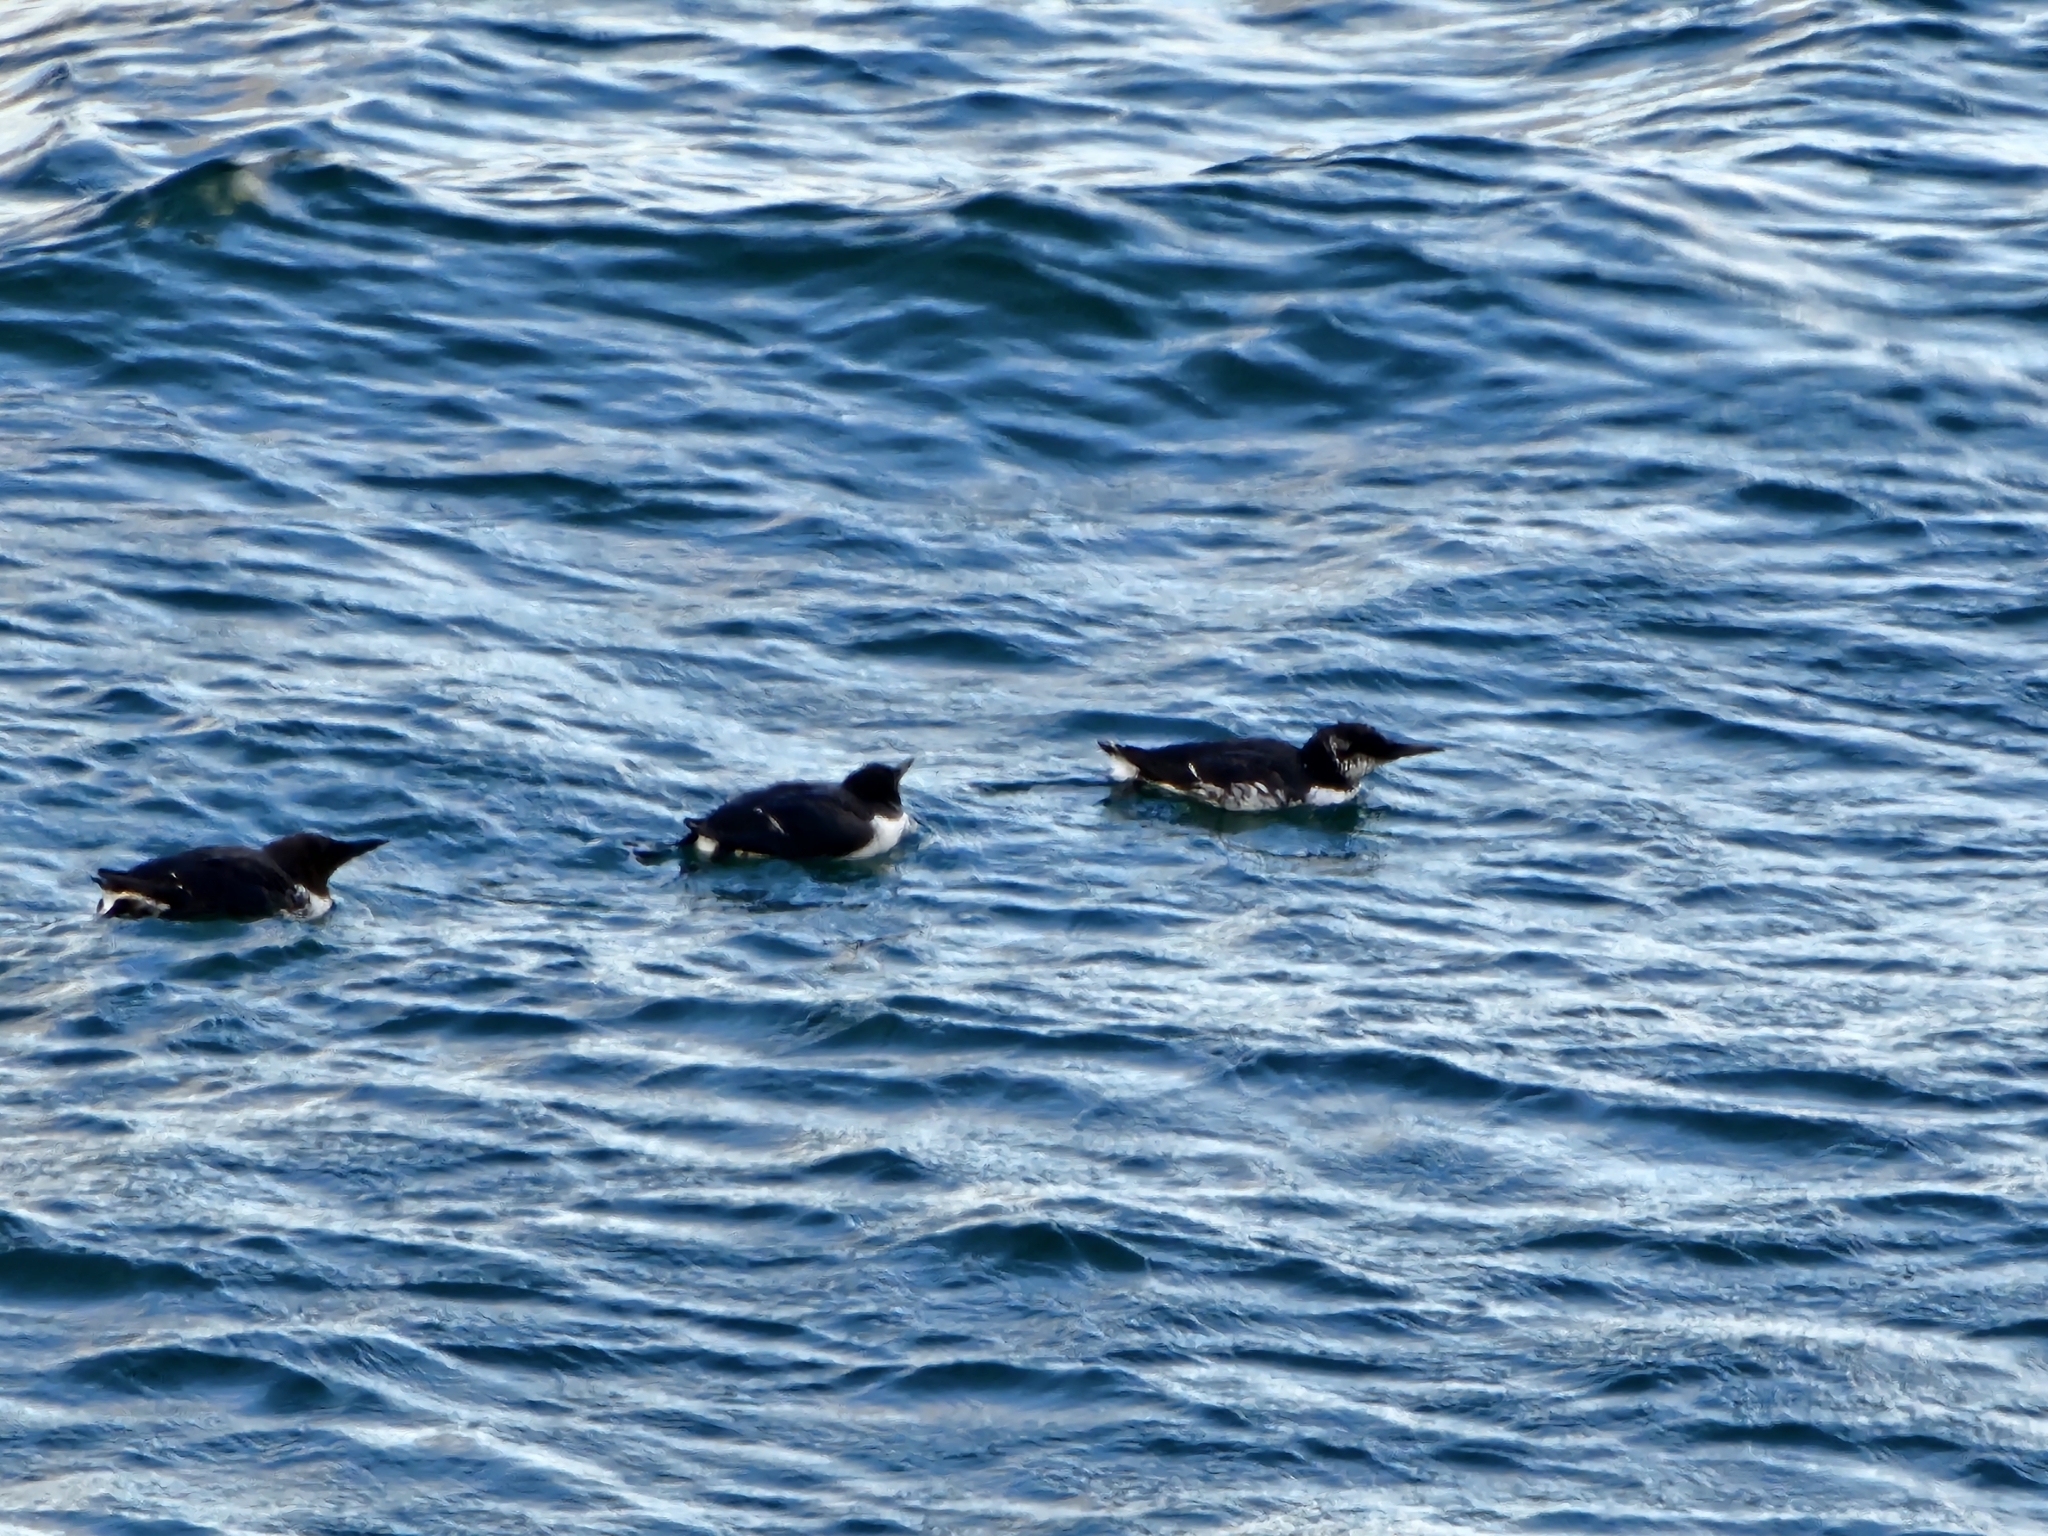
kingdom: Animalia
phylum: Chordata
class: Aves
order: Charadriiformes
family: Alcidae
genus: Uria
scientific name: Uria aalge
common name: Common murre
